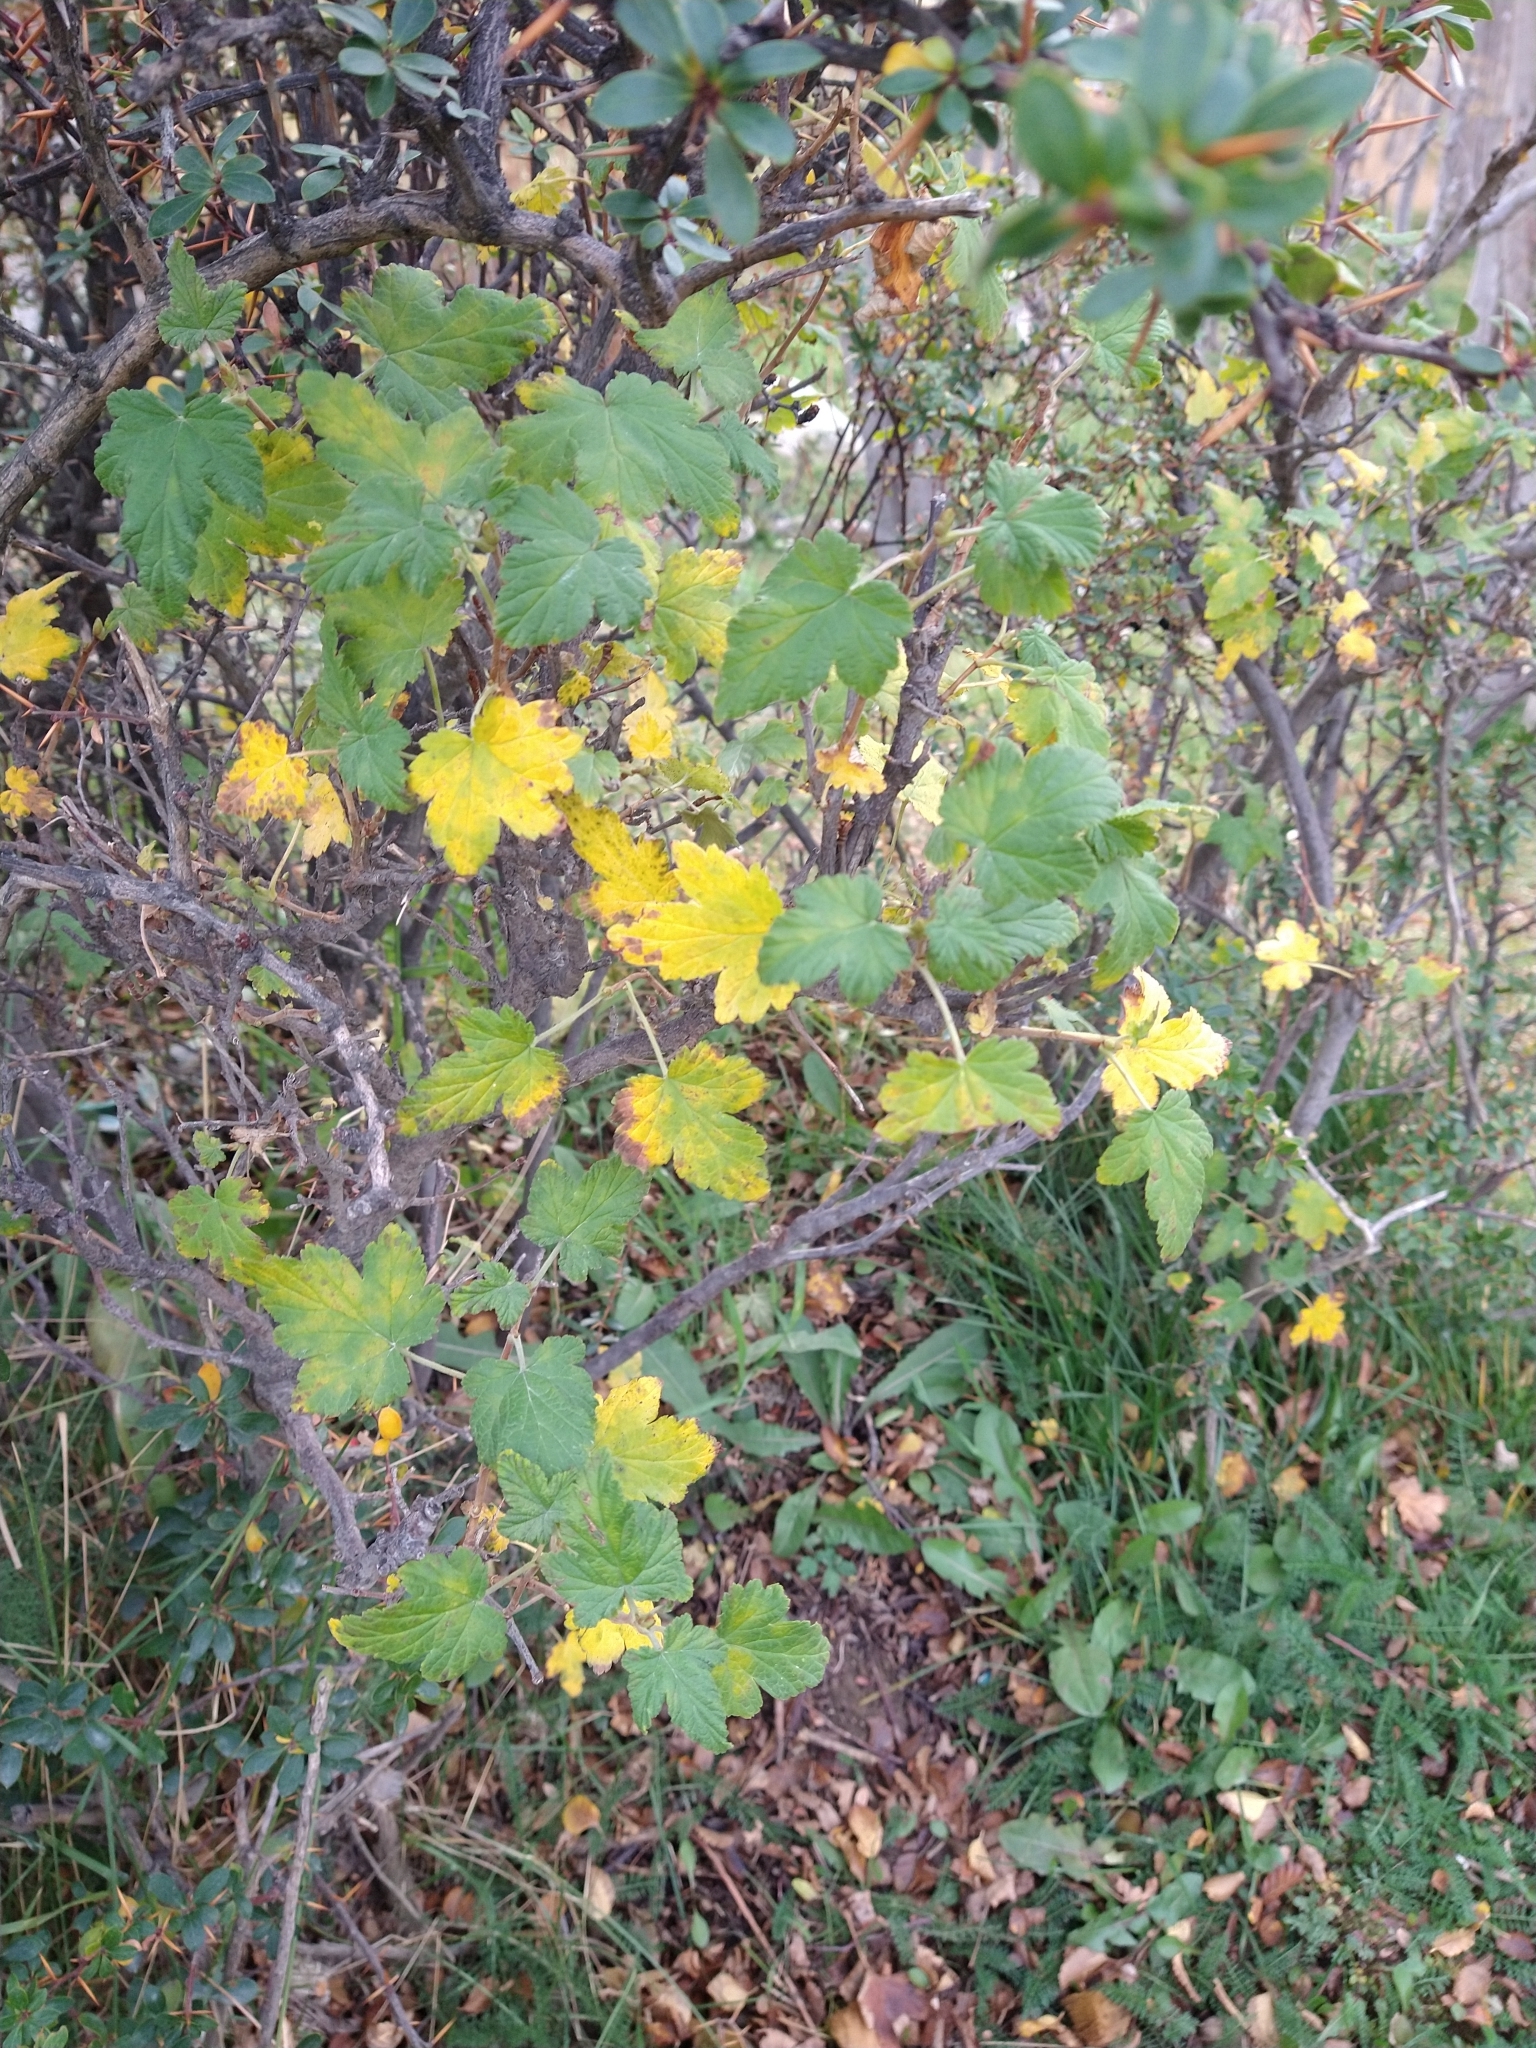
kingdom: Plantae
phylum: Tracheophyta
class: Magnoliopsida
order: Saxifragales
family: Grossulariaceae
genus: Ribes
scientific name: Ribes magellanicum
